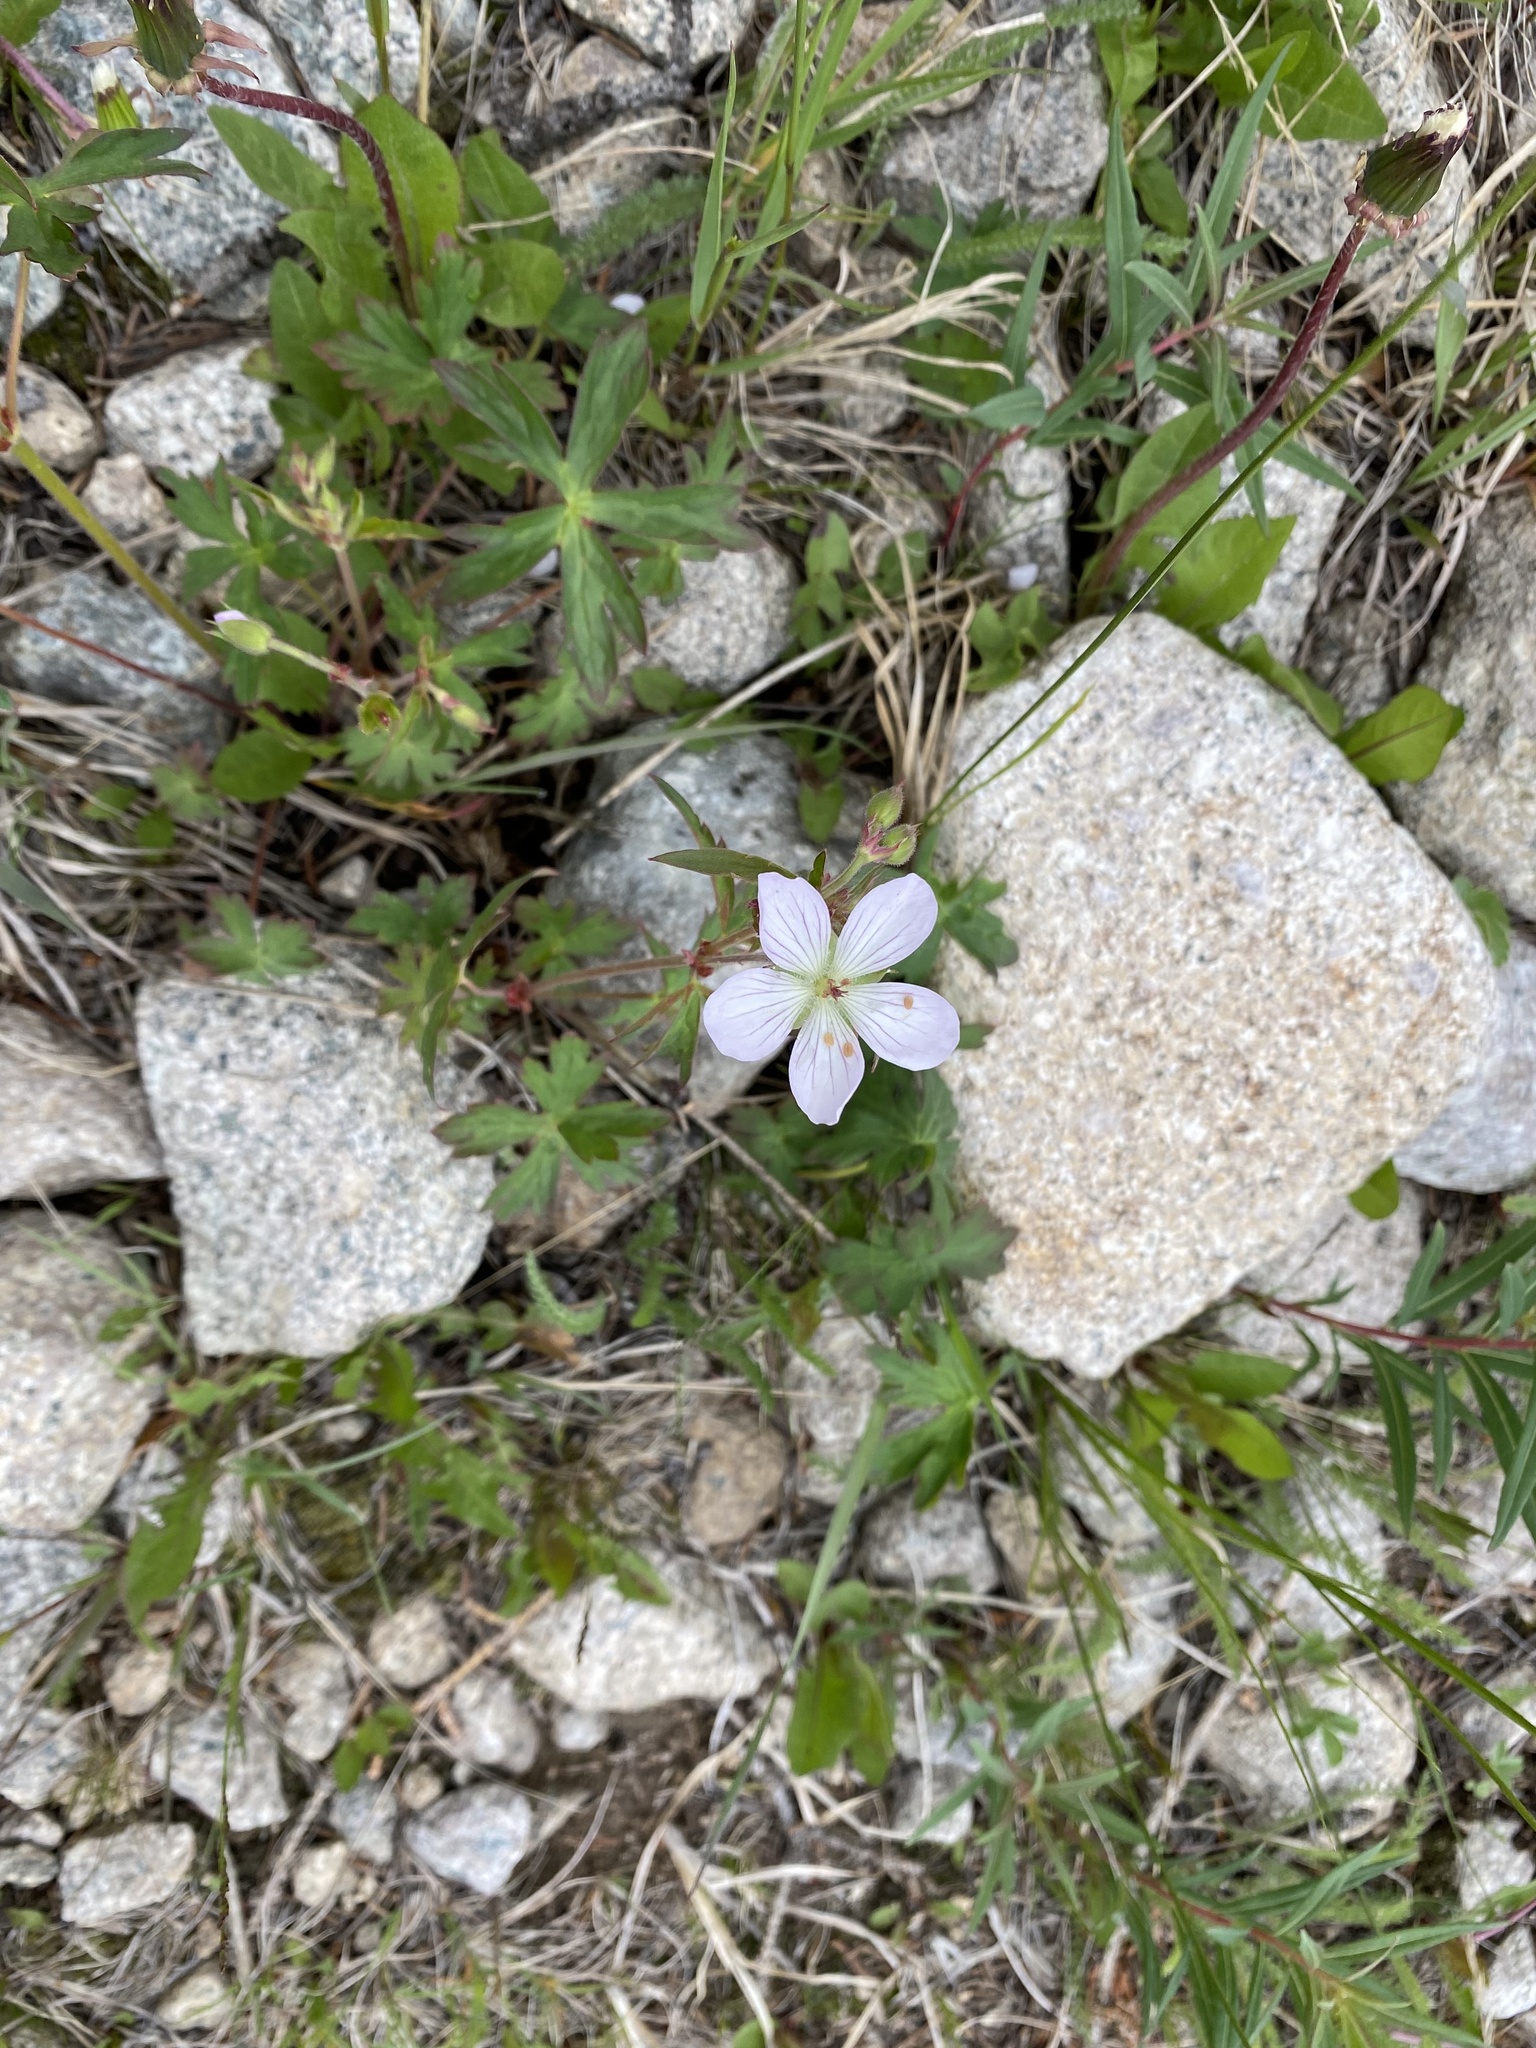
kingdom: Plantae
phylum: Tracheophyta
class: Magnoliopsida
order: Geraniales
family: Geraniaceae
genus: Geranium
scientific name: Geranium richardsonii
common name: Richardson's crane's-bill
